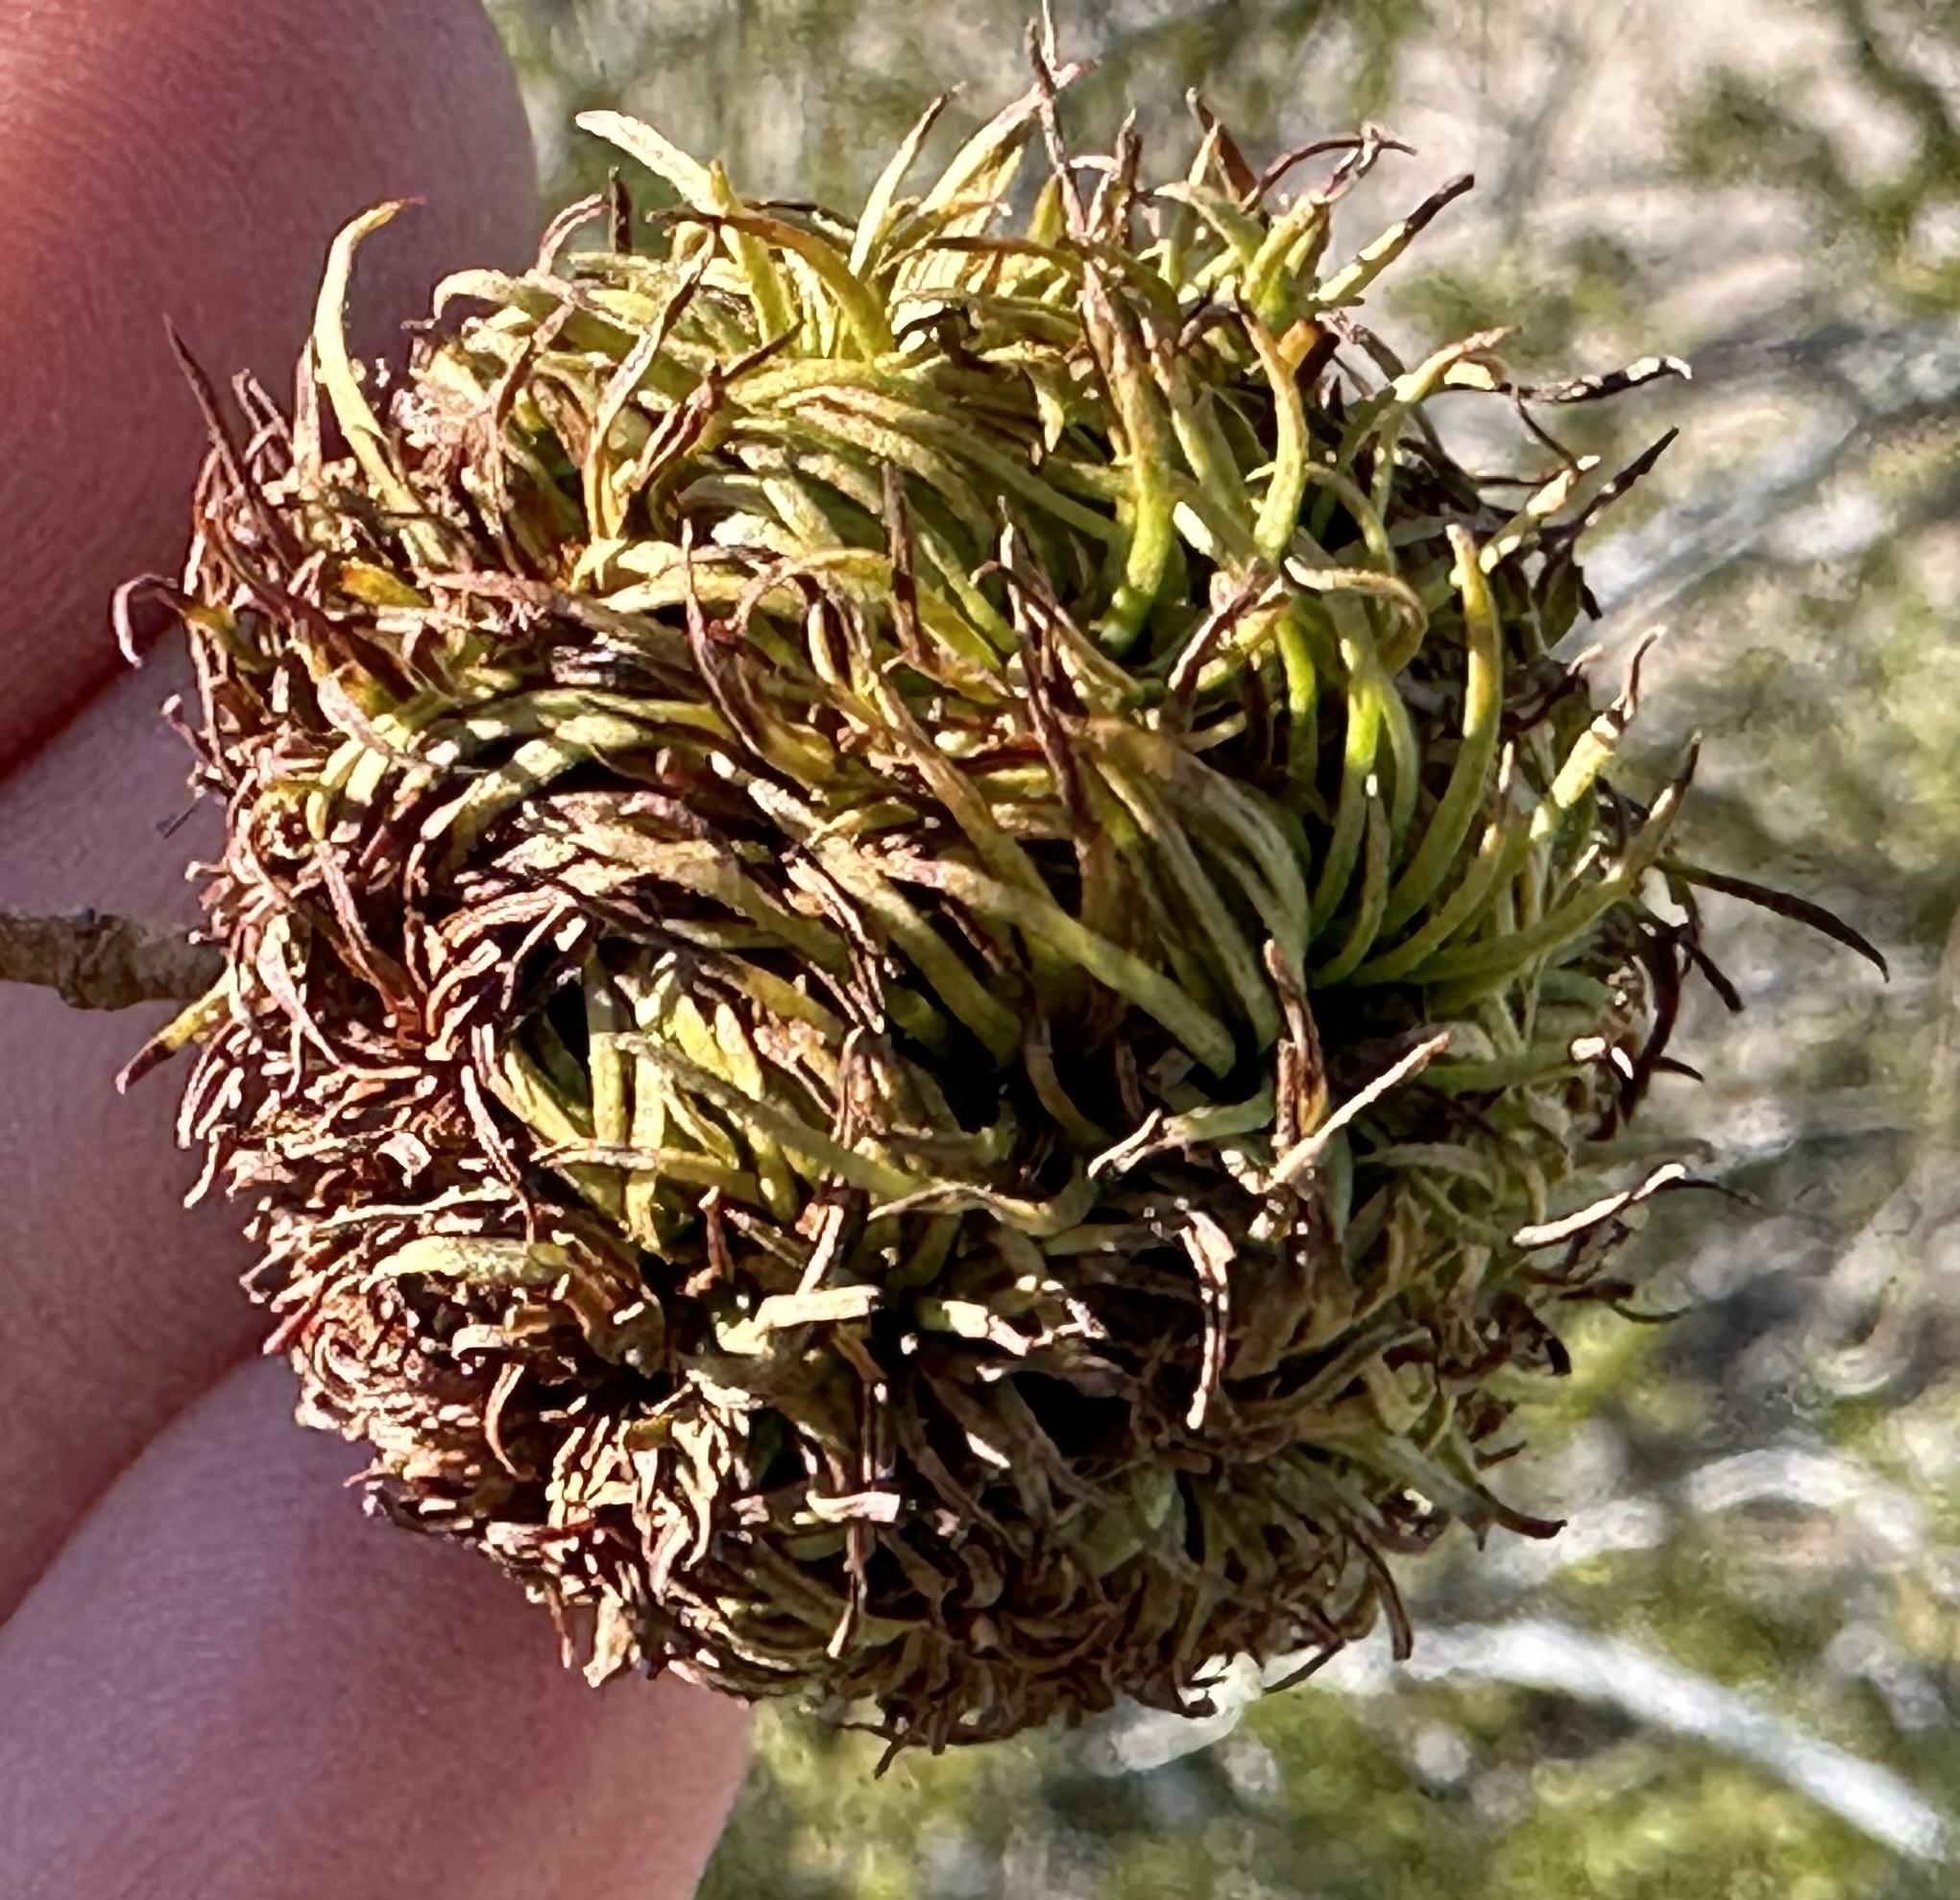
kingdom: Animalia
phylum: Arthropoda
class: Insecta
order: Diptera
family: Cecidomyiidae
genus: Asphondylia
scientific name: Asphondylia auripila
